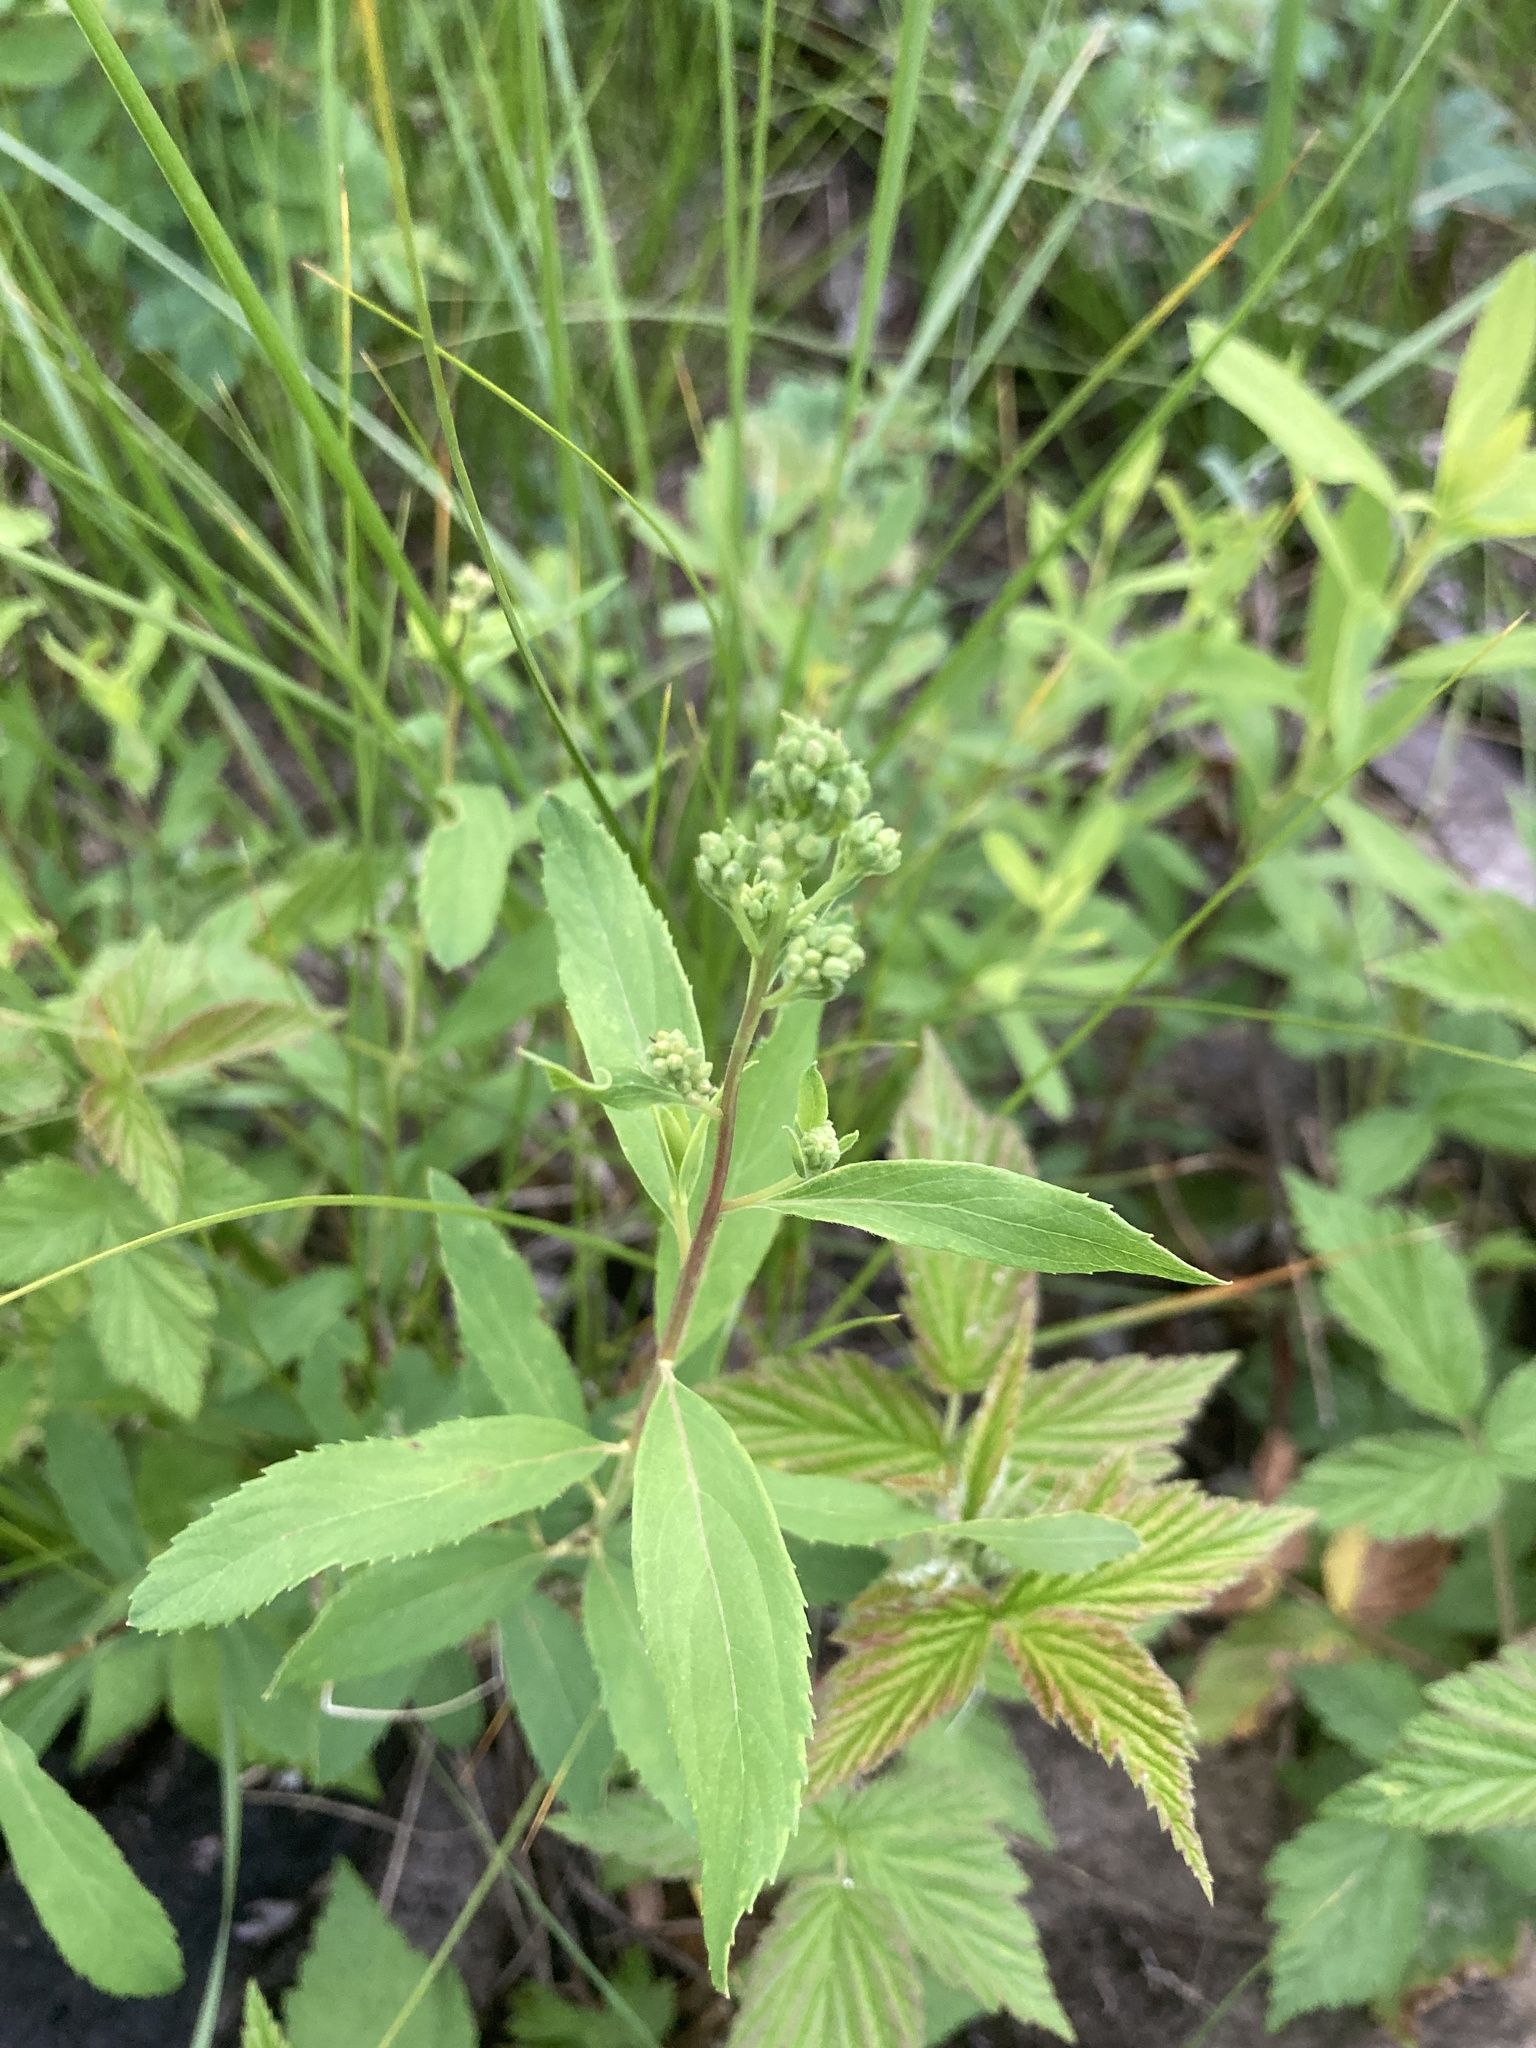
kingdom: Plantae
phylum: Tracheophyta
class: Magnoliopsida
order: Rosales
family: Rosaceae
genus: Spiraea
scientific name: Spiraea alba
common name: Pale bridewort
